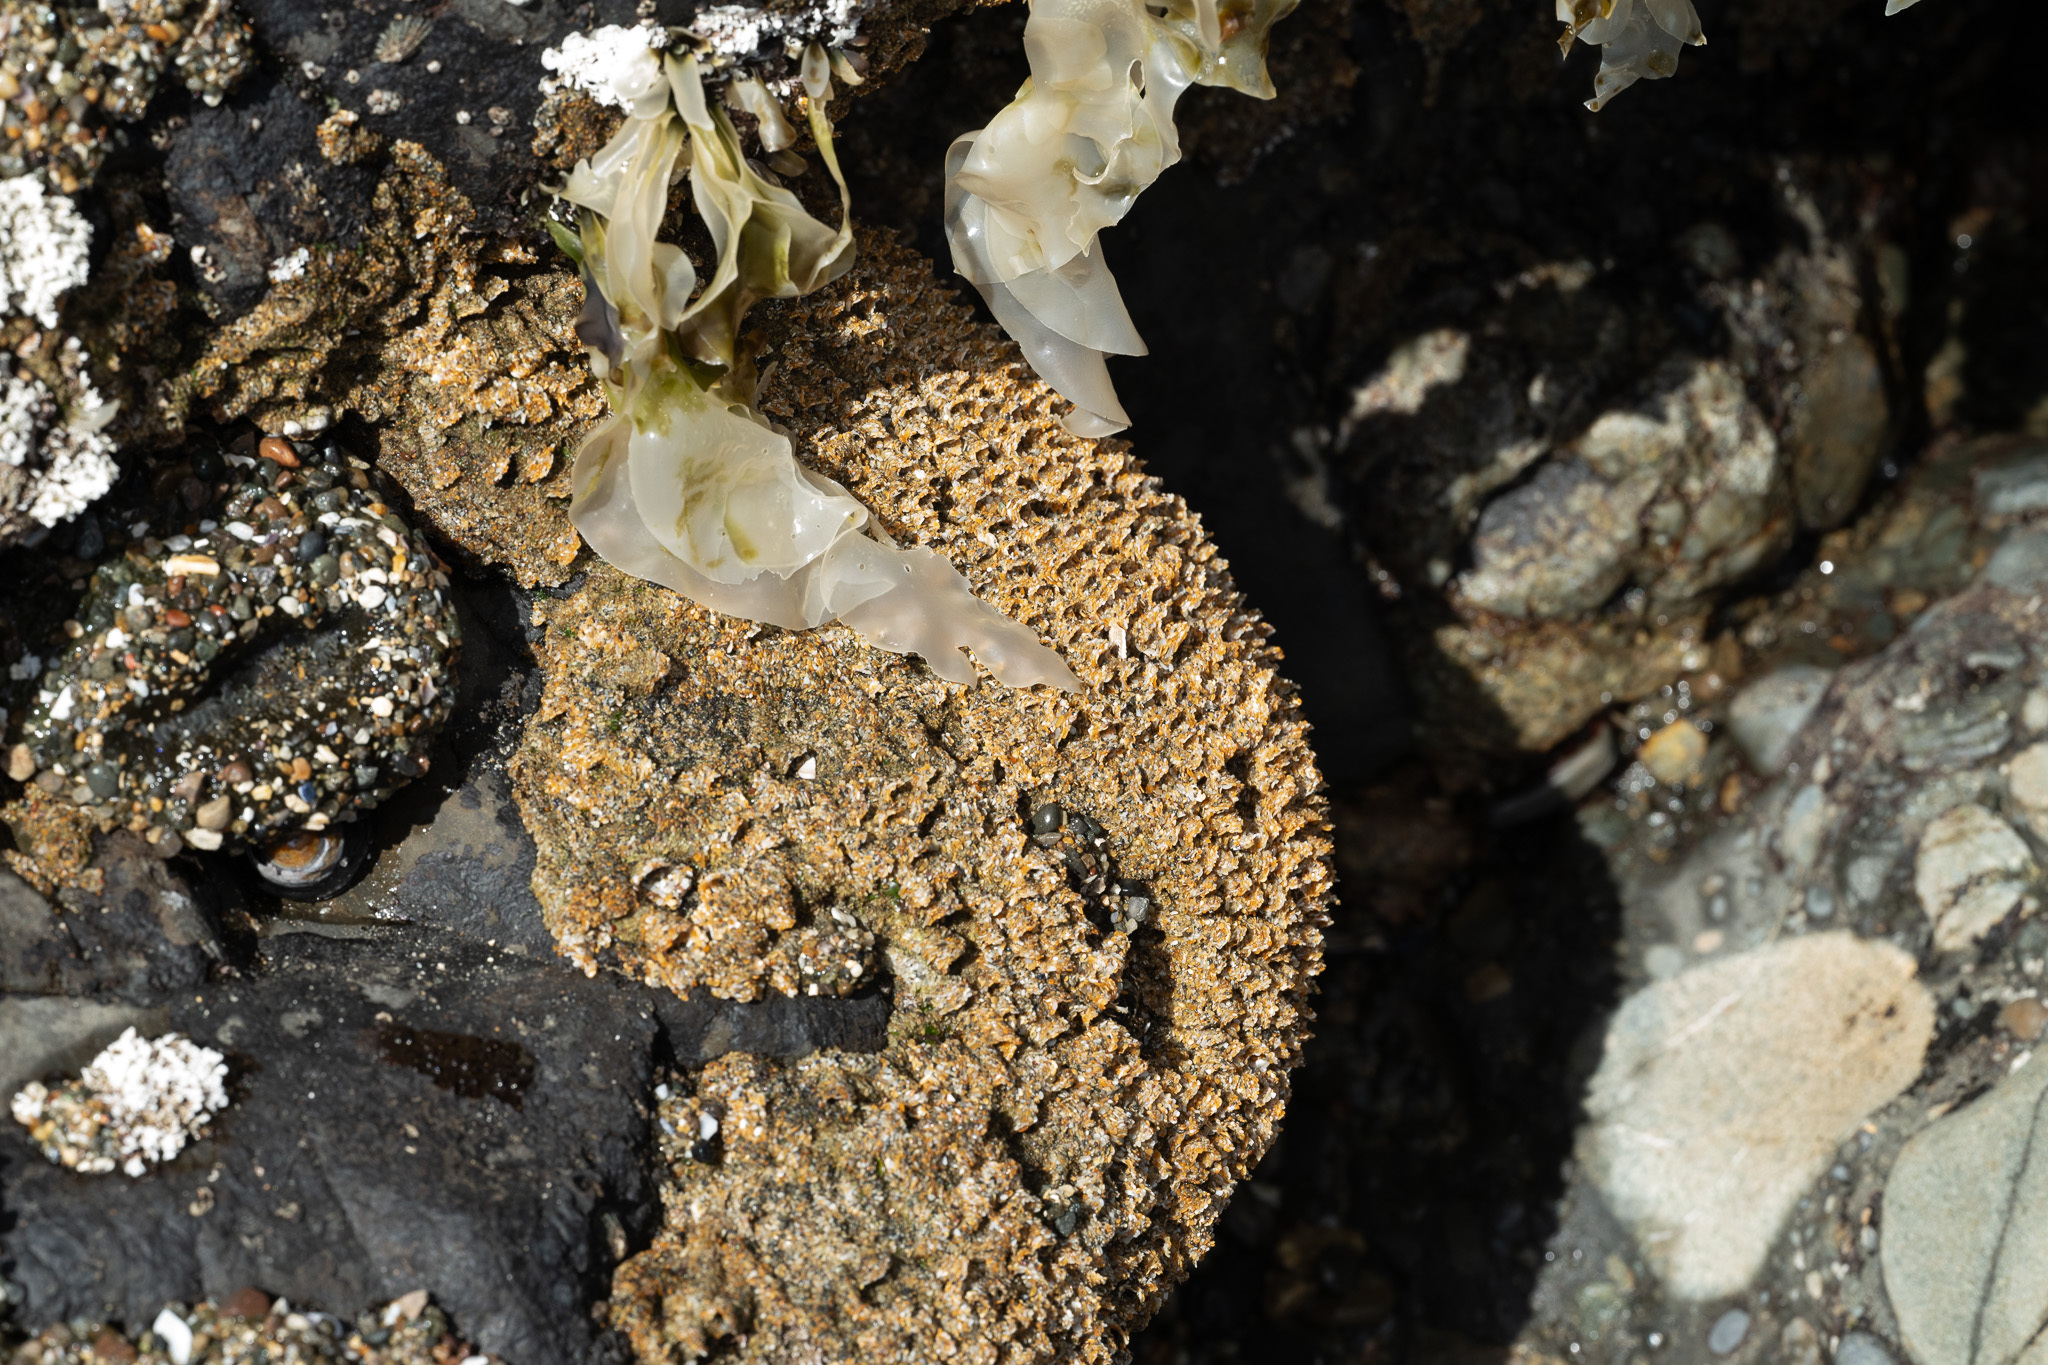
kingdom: Animalia
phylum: Annelida
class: Polychaeta
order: Sabellida
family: Sabellariidae
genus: Phragmatopoma
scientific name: Phragmatopoma californica
